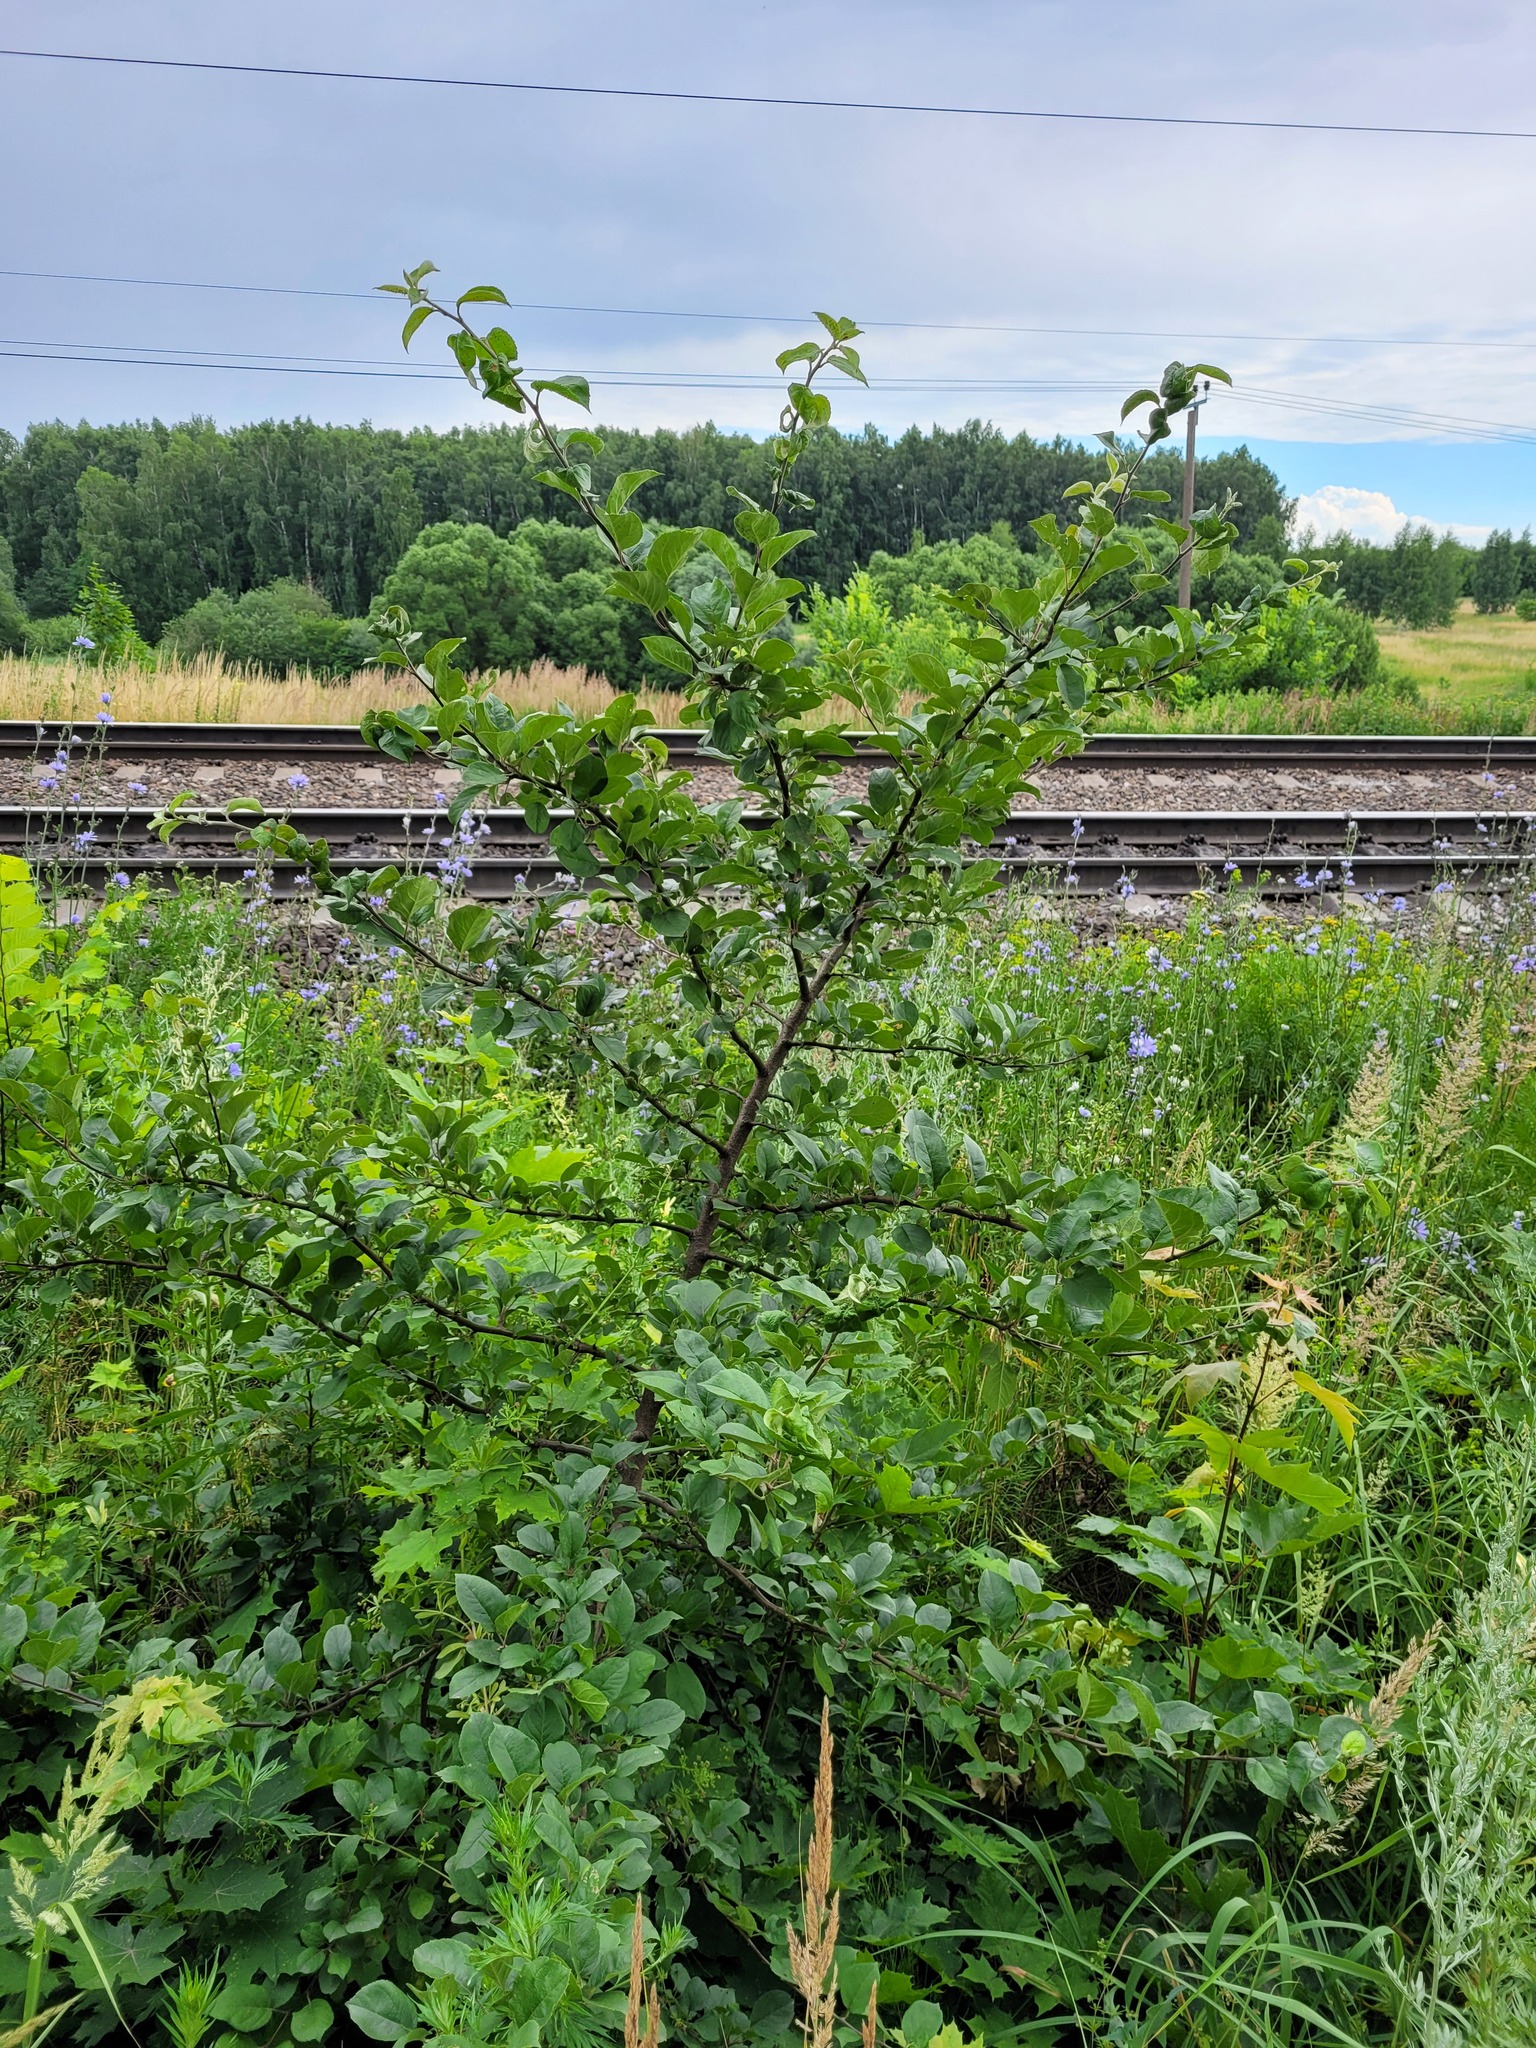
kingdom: Plantae
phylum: Tracheophyta
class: Magnoliopsida
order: Rosales
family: Rosaceae
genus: Malus
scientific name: Malus domestica
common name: Apple
